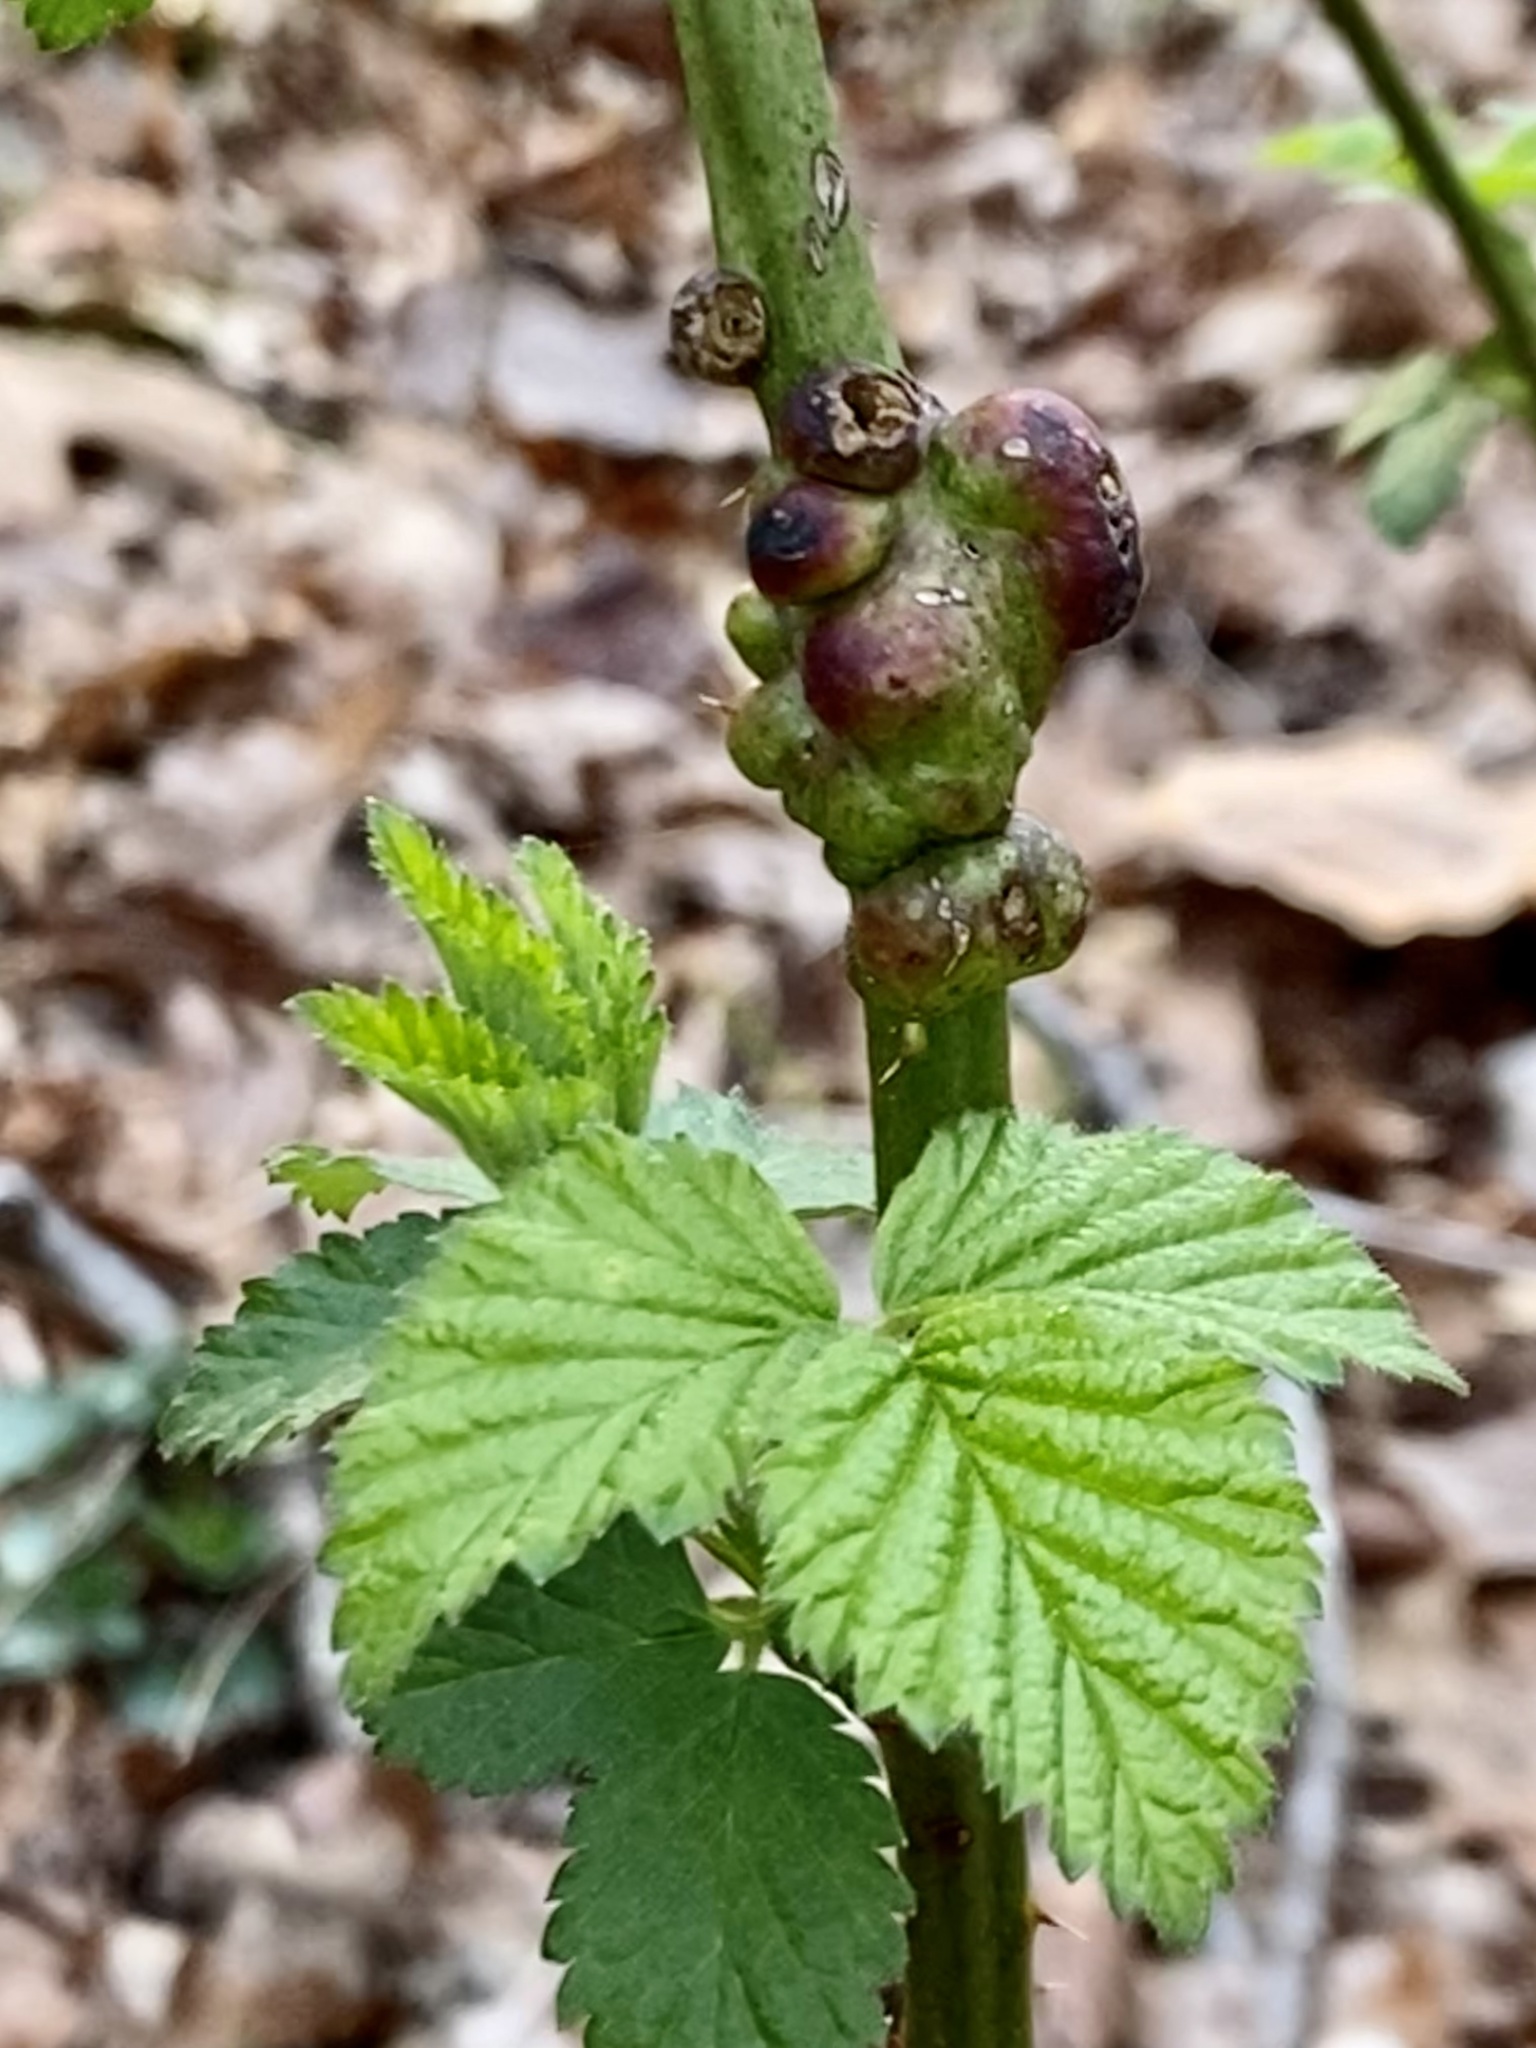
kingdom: Animalia
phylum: Arthropoda
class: Insecta
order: Hymenoptera
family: Cynipidae
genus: Diastrophus
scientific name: Diastrophus
